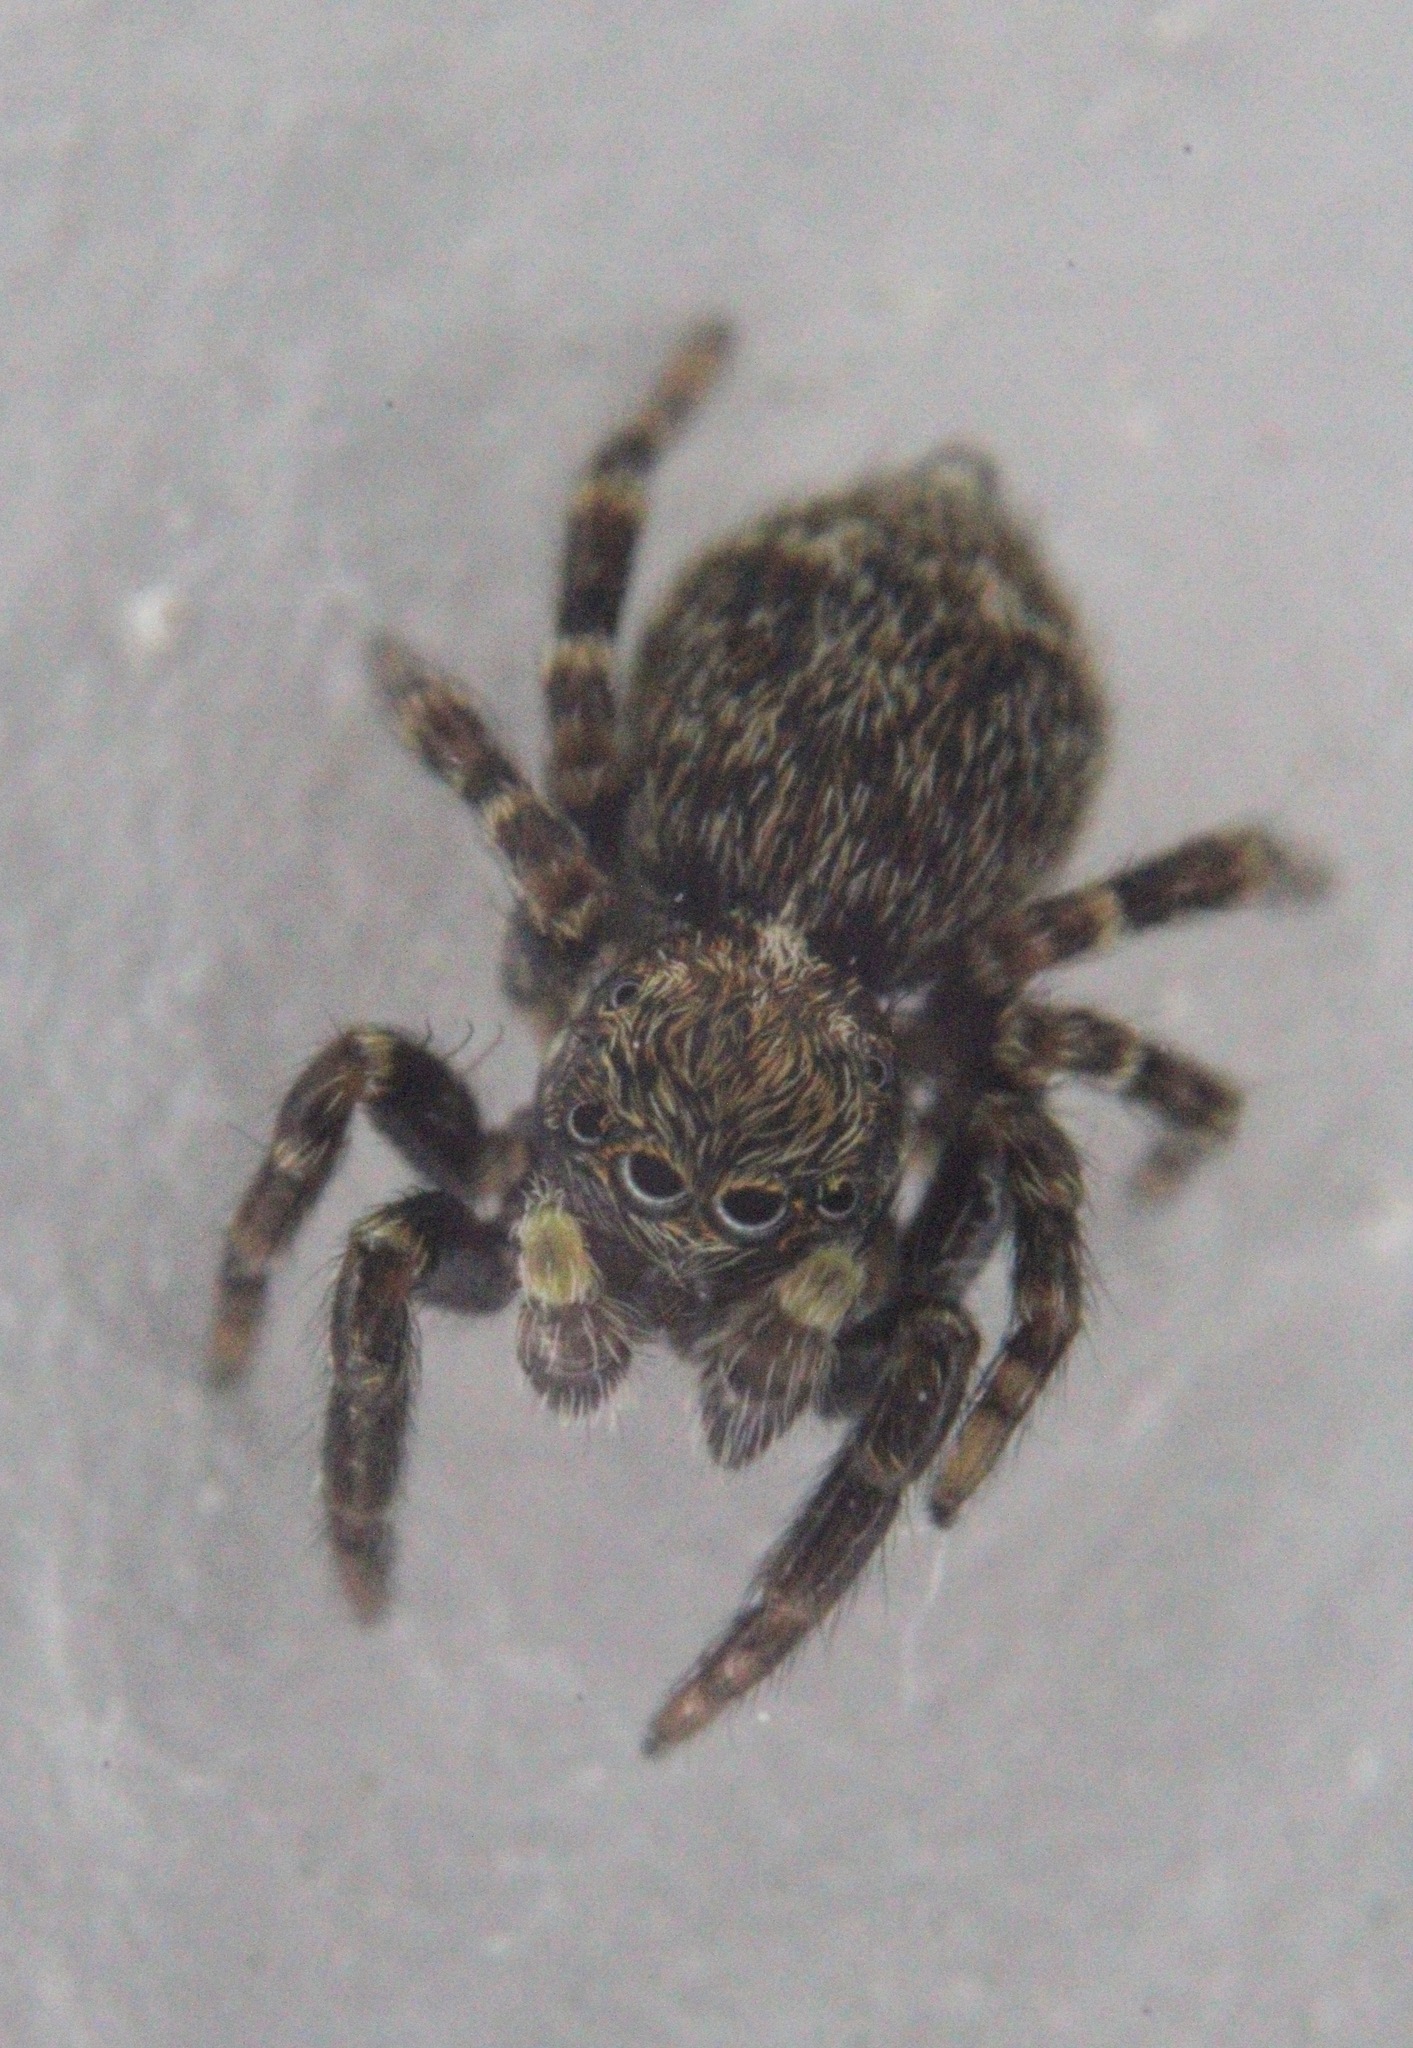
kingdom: Animalia
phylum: Arthropoda
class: Arachnida
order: Araneae
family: Salticidae
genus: Pseudeuophrys
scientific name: Pseudeuophrys erratica
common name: Jumping spider
